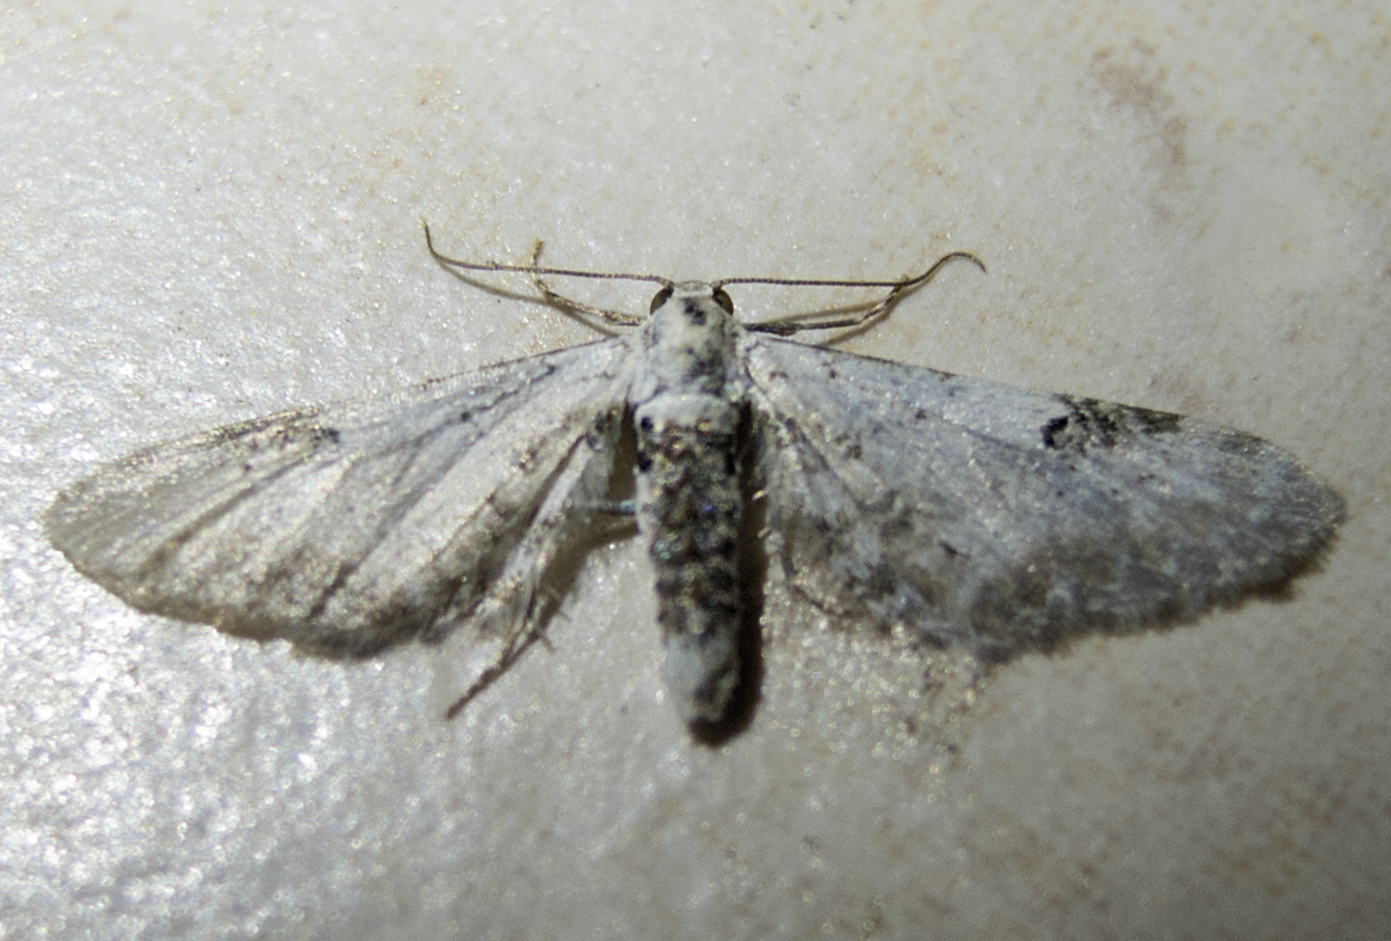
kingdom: Animalia
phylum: Arthropoda
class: Insecta
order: Lepidoptera
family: Geometridae
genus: Eupithecia
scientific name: Eupithecia centaureata
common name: Lime-speck pug
